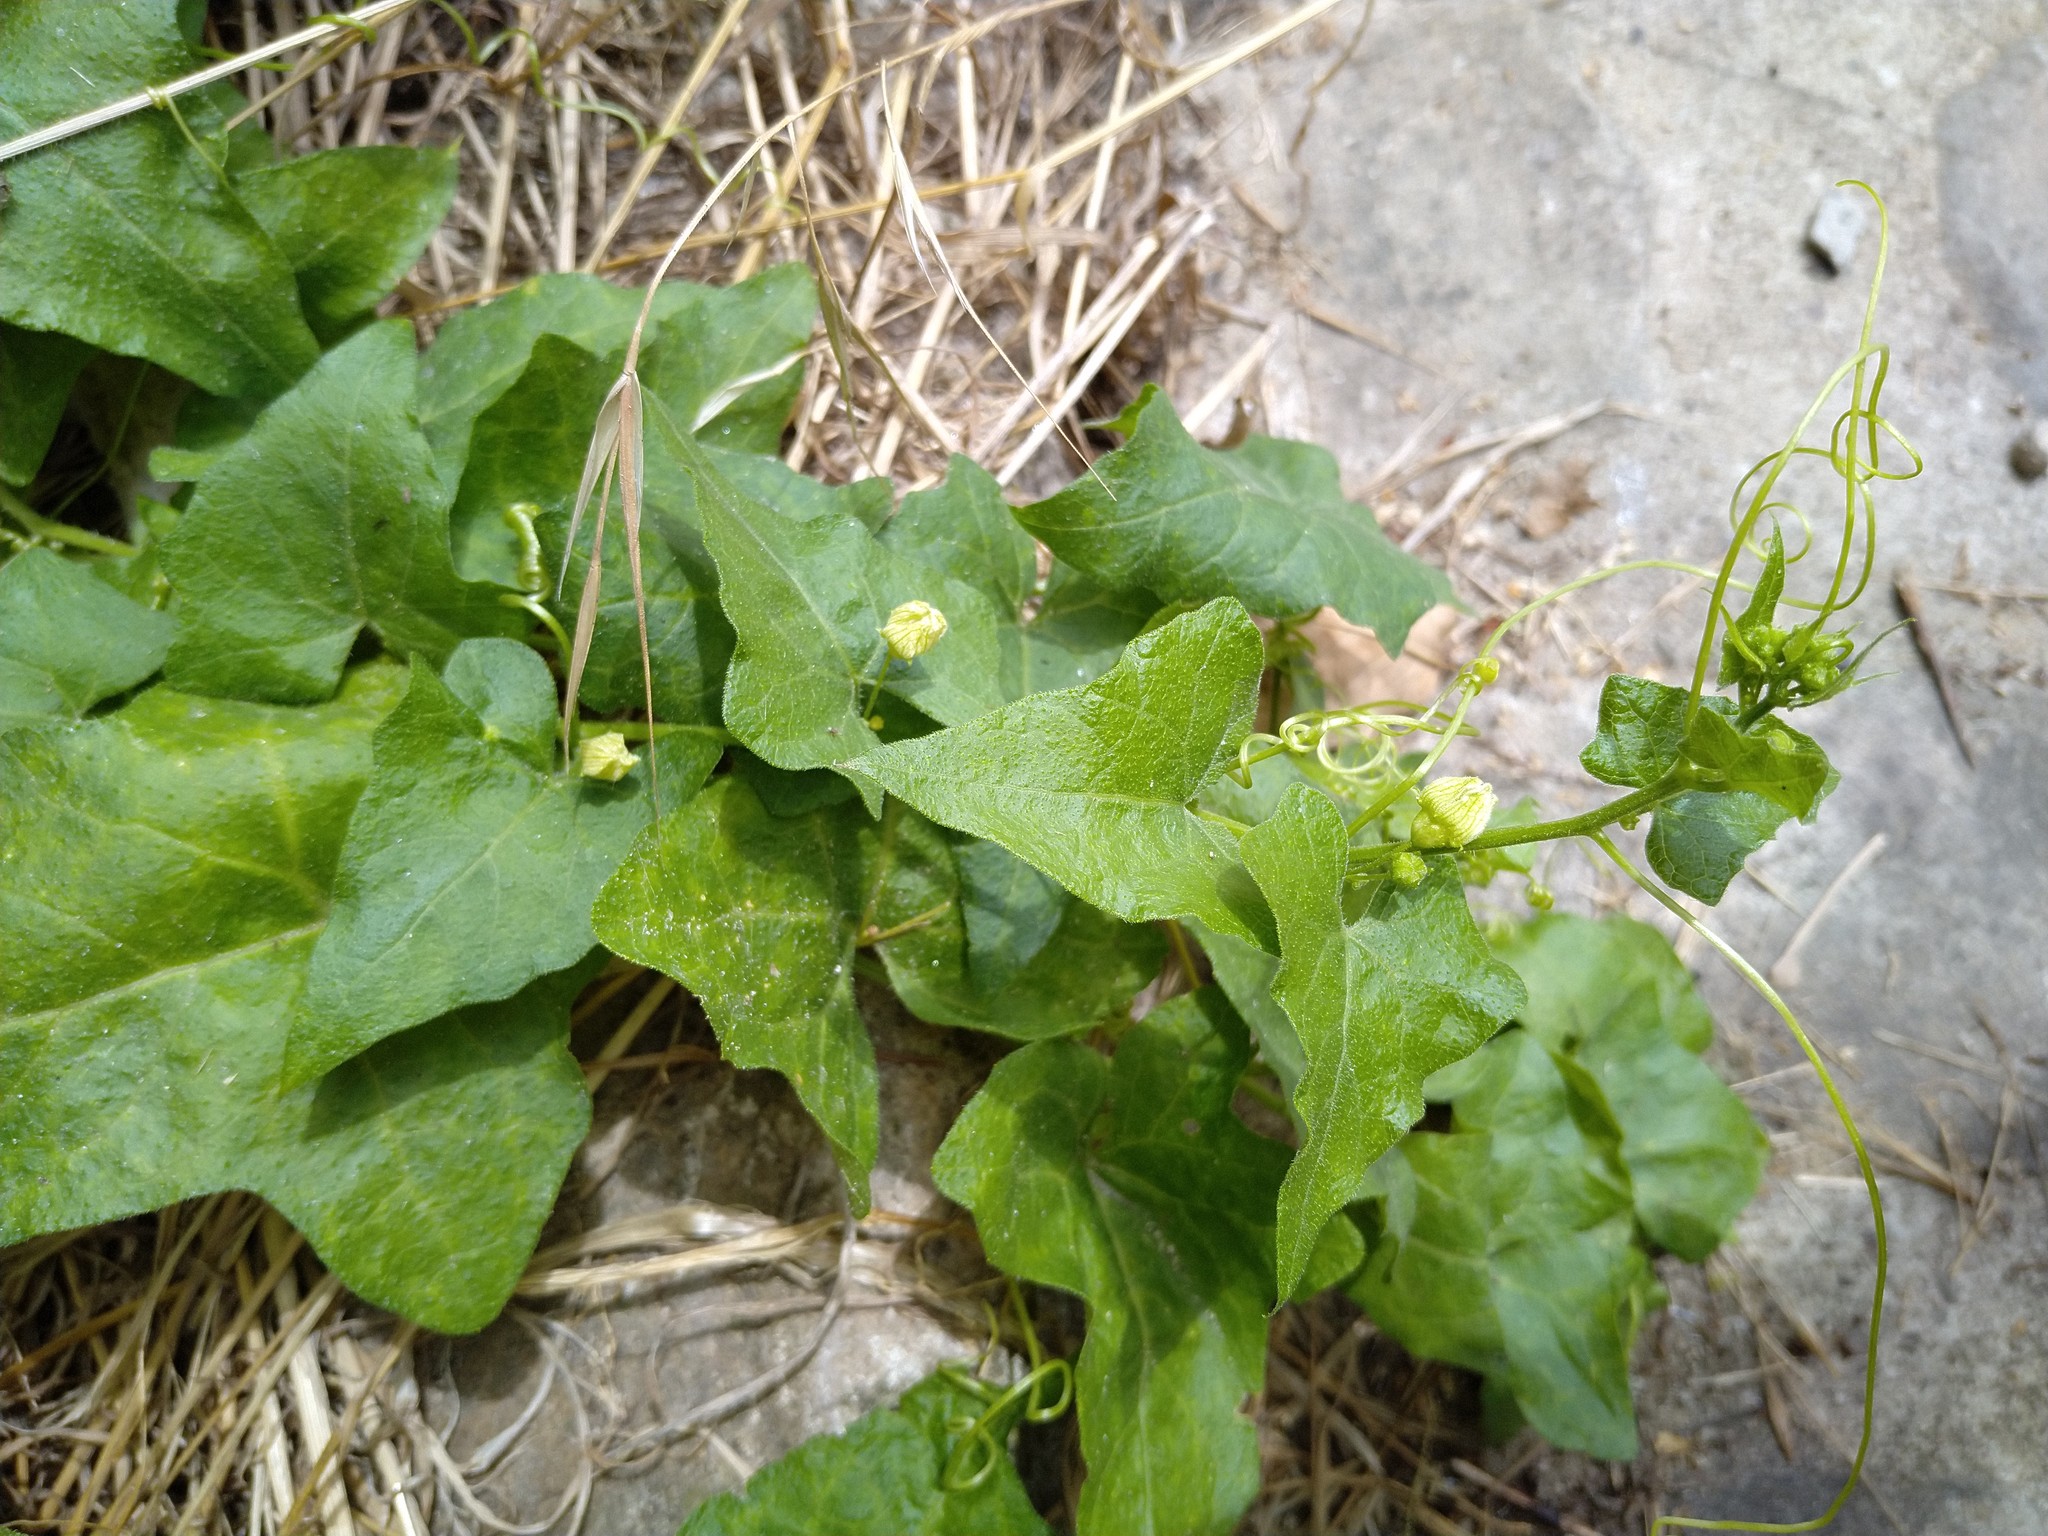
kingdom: Plantae
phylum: Tracheophyta
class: Magnoliopsida
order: Cucurbitales
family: Cucurbitaceae
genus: Bryonia
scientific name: Bryonia cretica
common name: Cretan bryony
